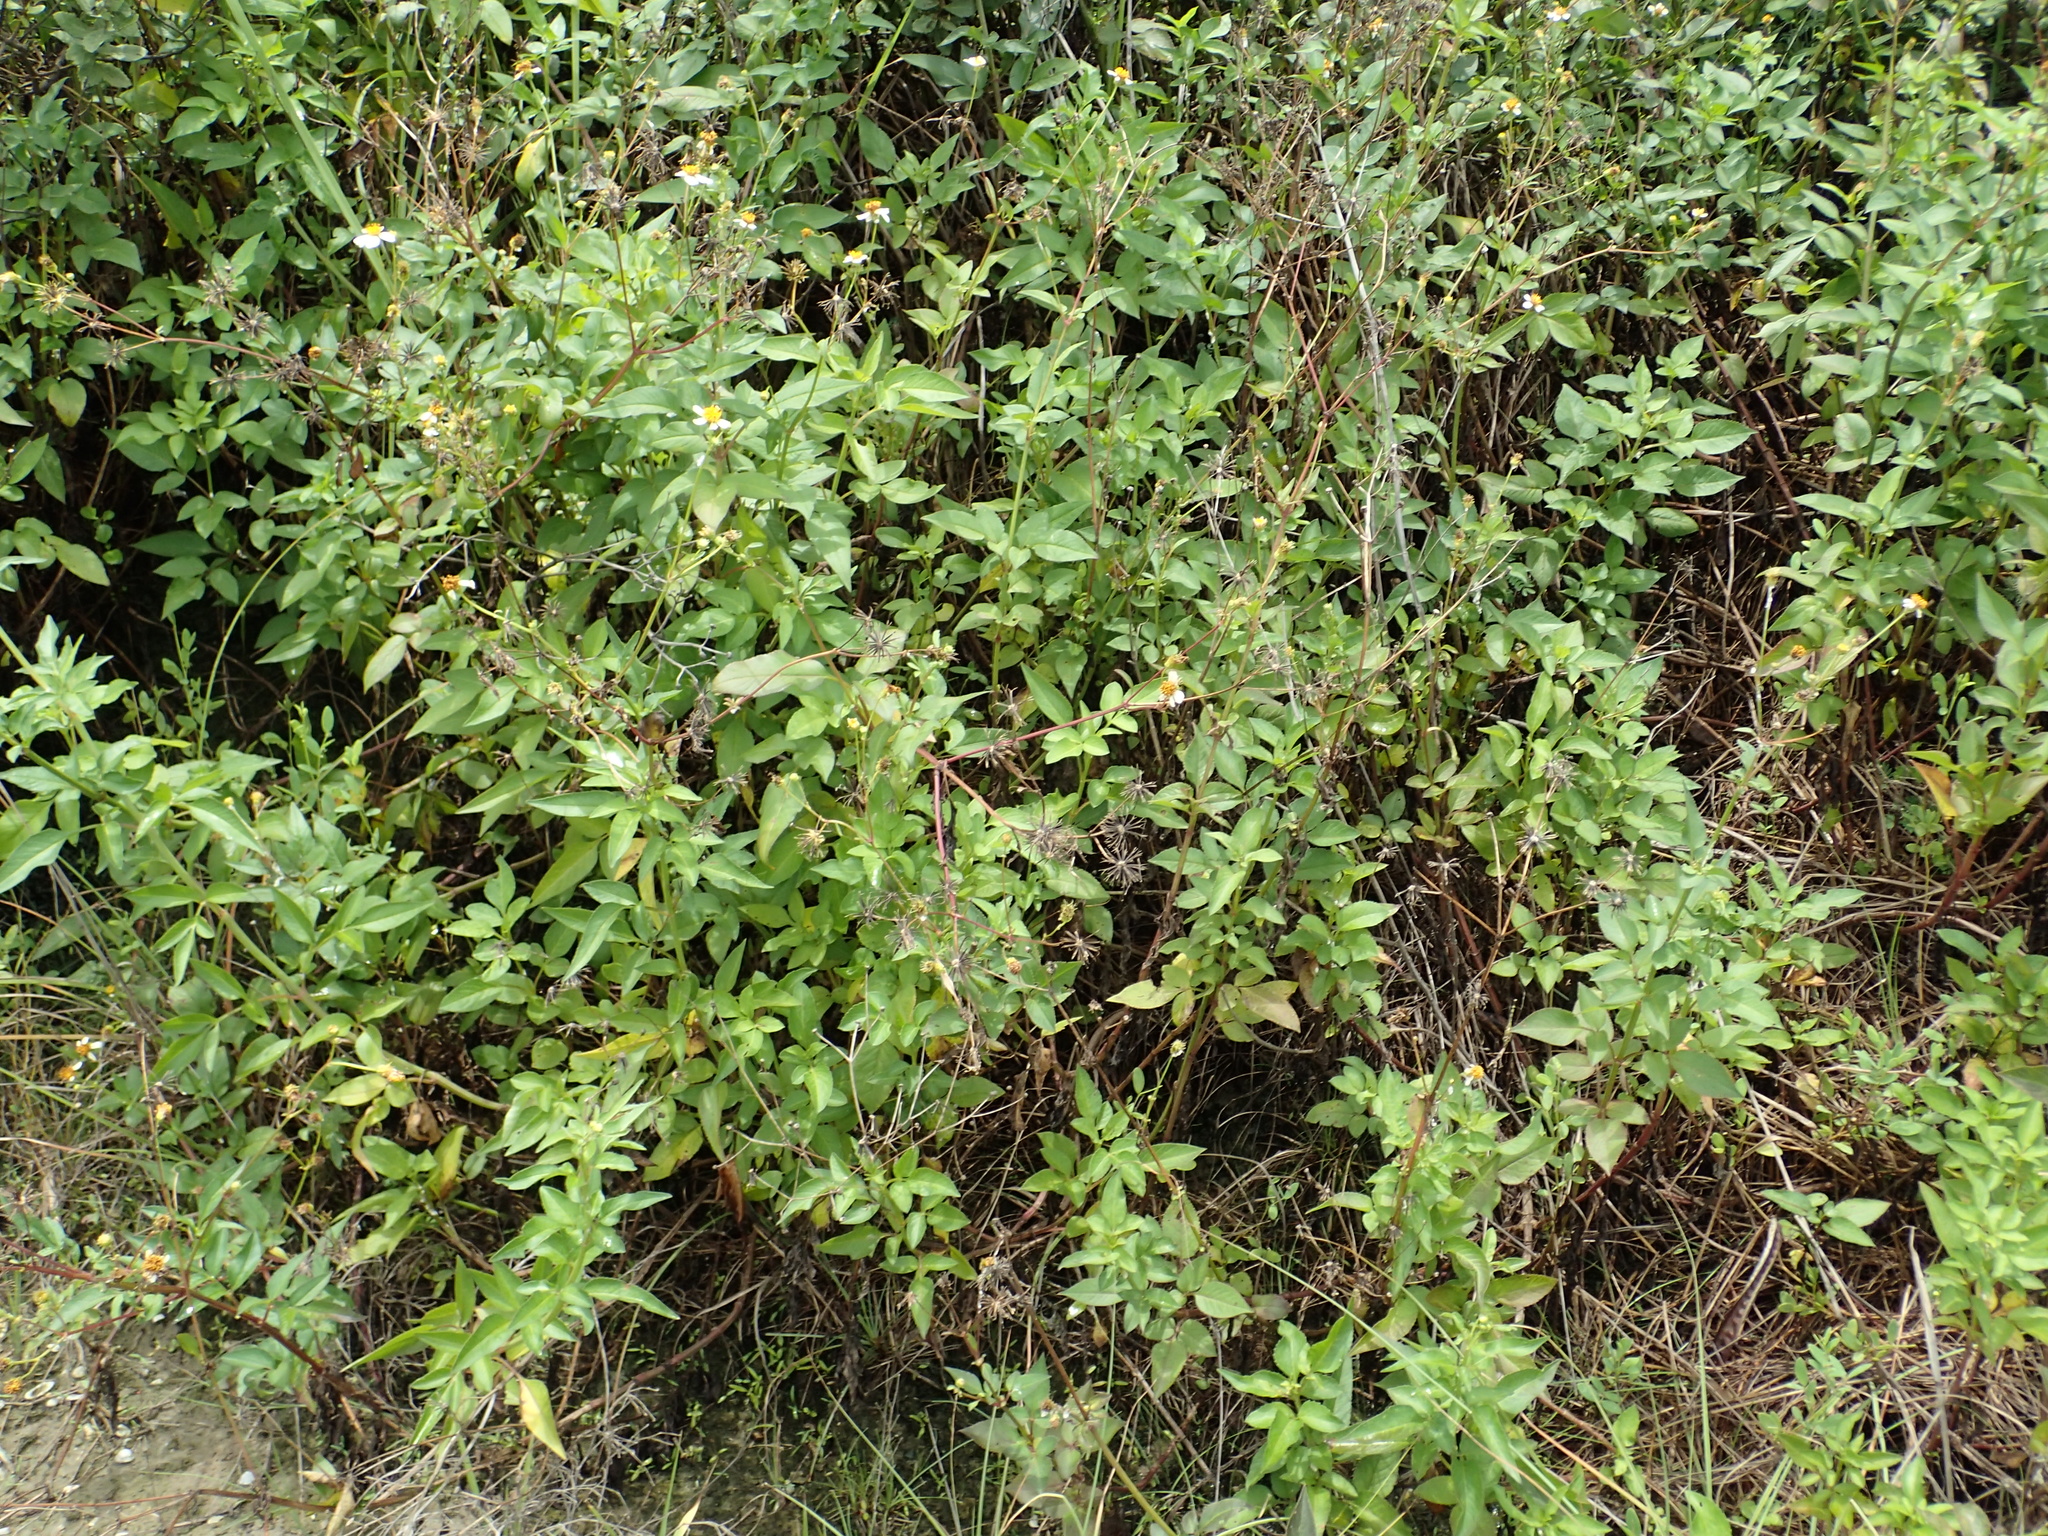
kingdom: Plantae
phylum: Tracheophyta
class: Magnoliopsida
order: Asterales
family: Asteraceae
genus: Bidens
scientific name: Bidens alba
